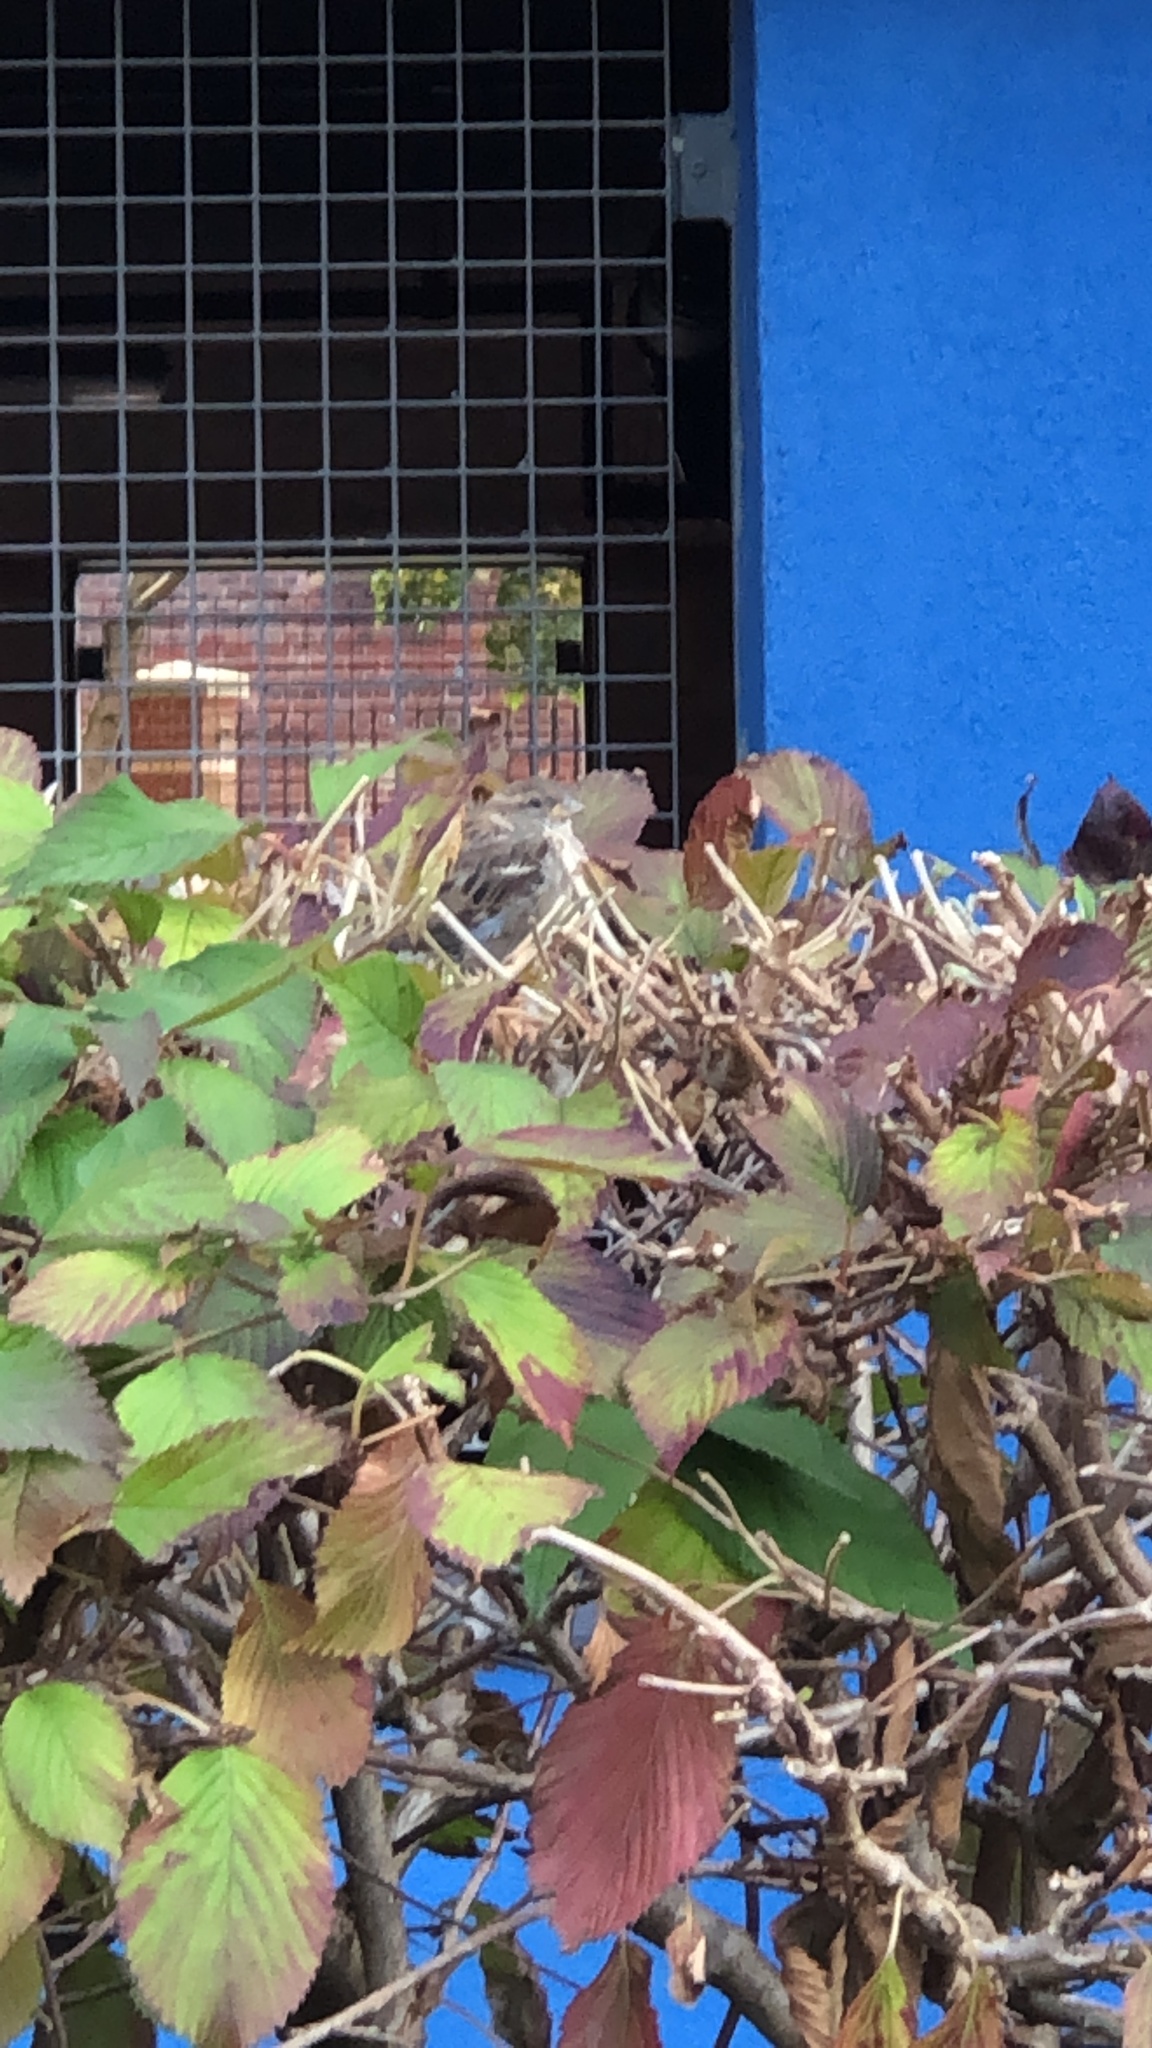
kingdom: Animalia
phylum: Chordata
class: Aves
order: Passeriformes
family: Passeridae
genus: Passer
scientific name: Passer domesticus
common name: House sparrow
